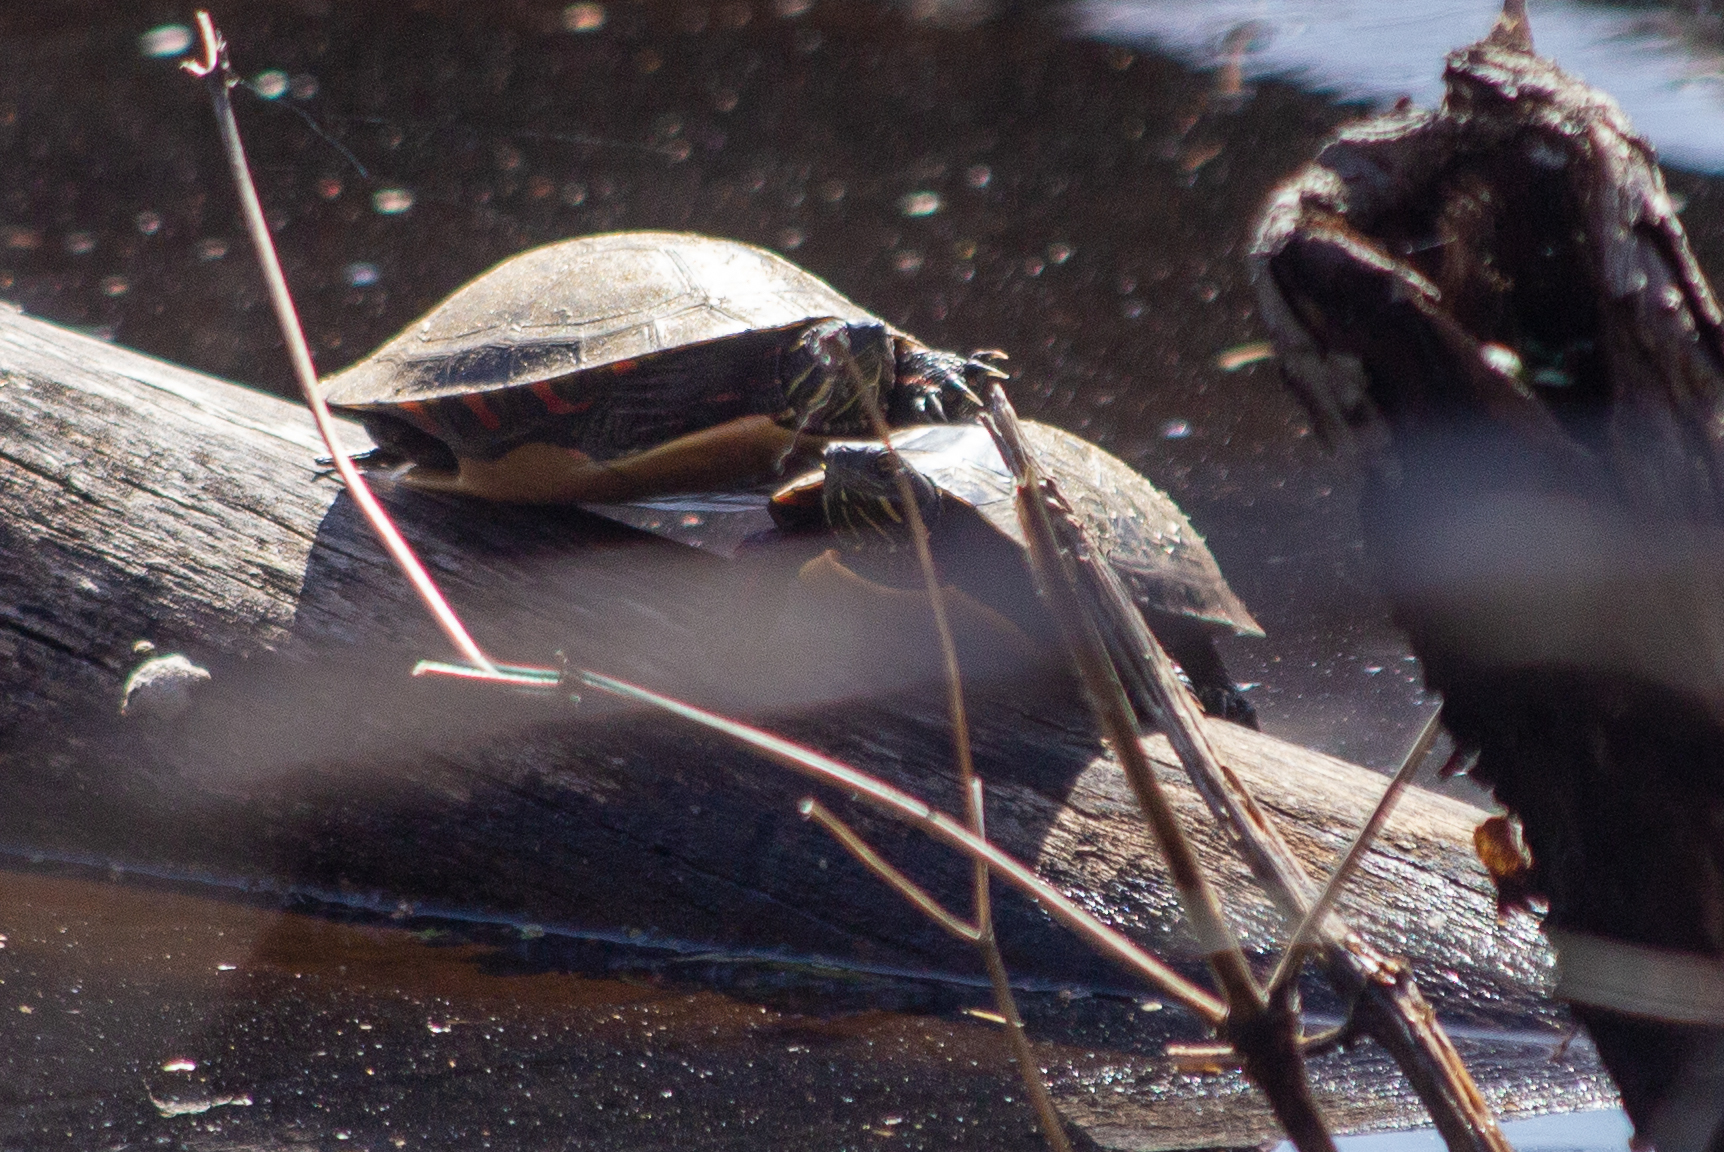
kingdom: Animalia
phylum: Chordata
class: Testudines
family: Emydidae
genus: Chrysemys
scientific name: Chrysemys picta
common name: Painted turtle
